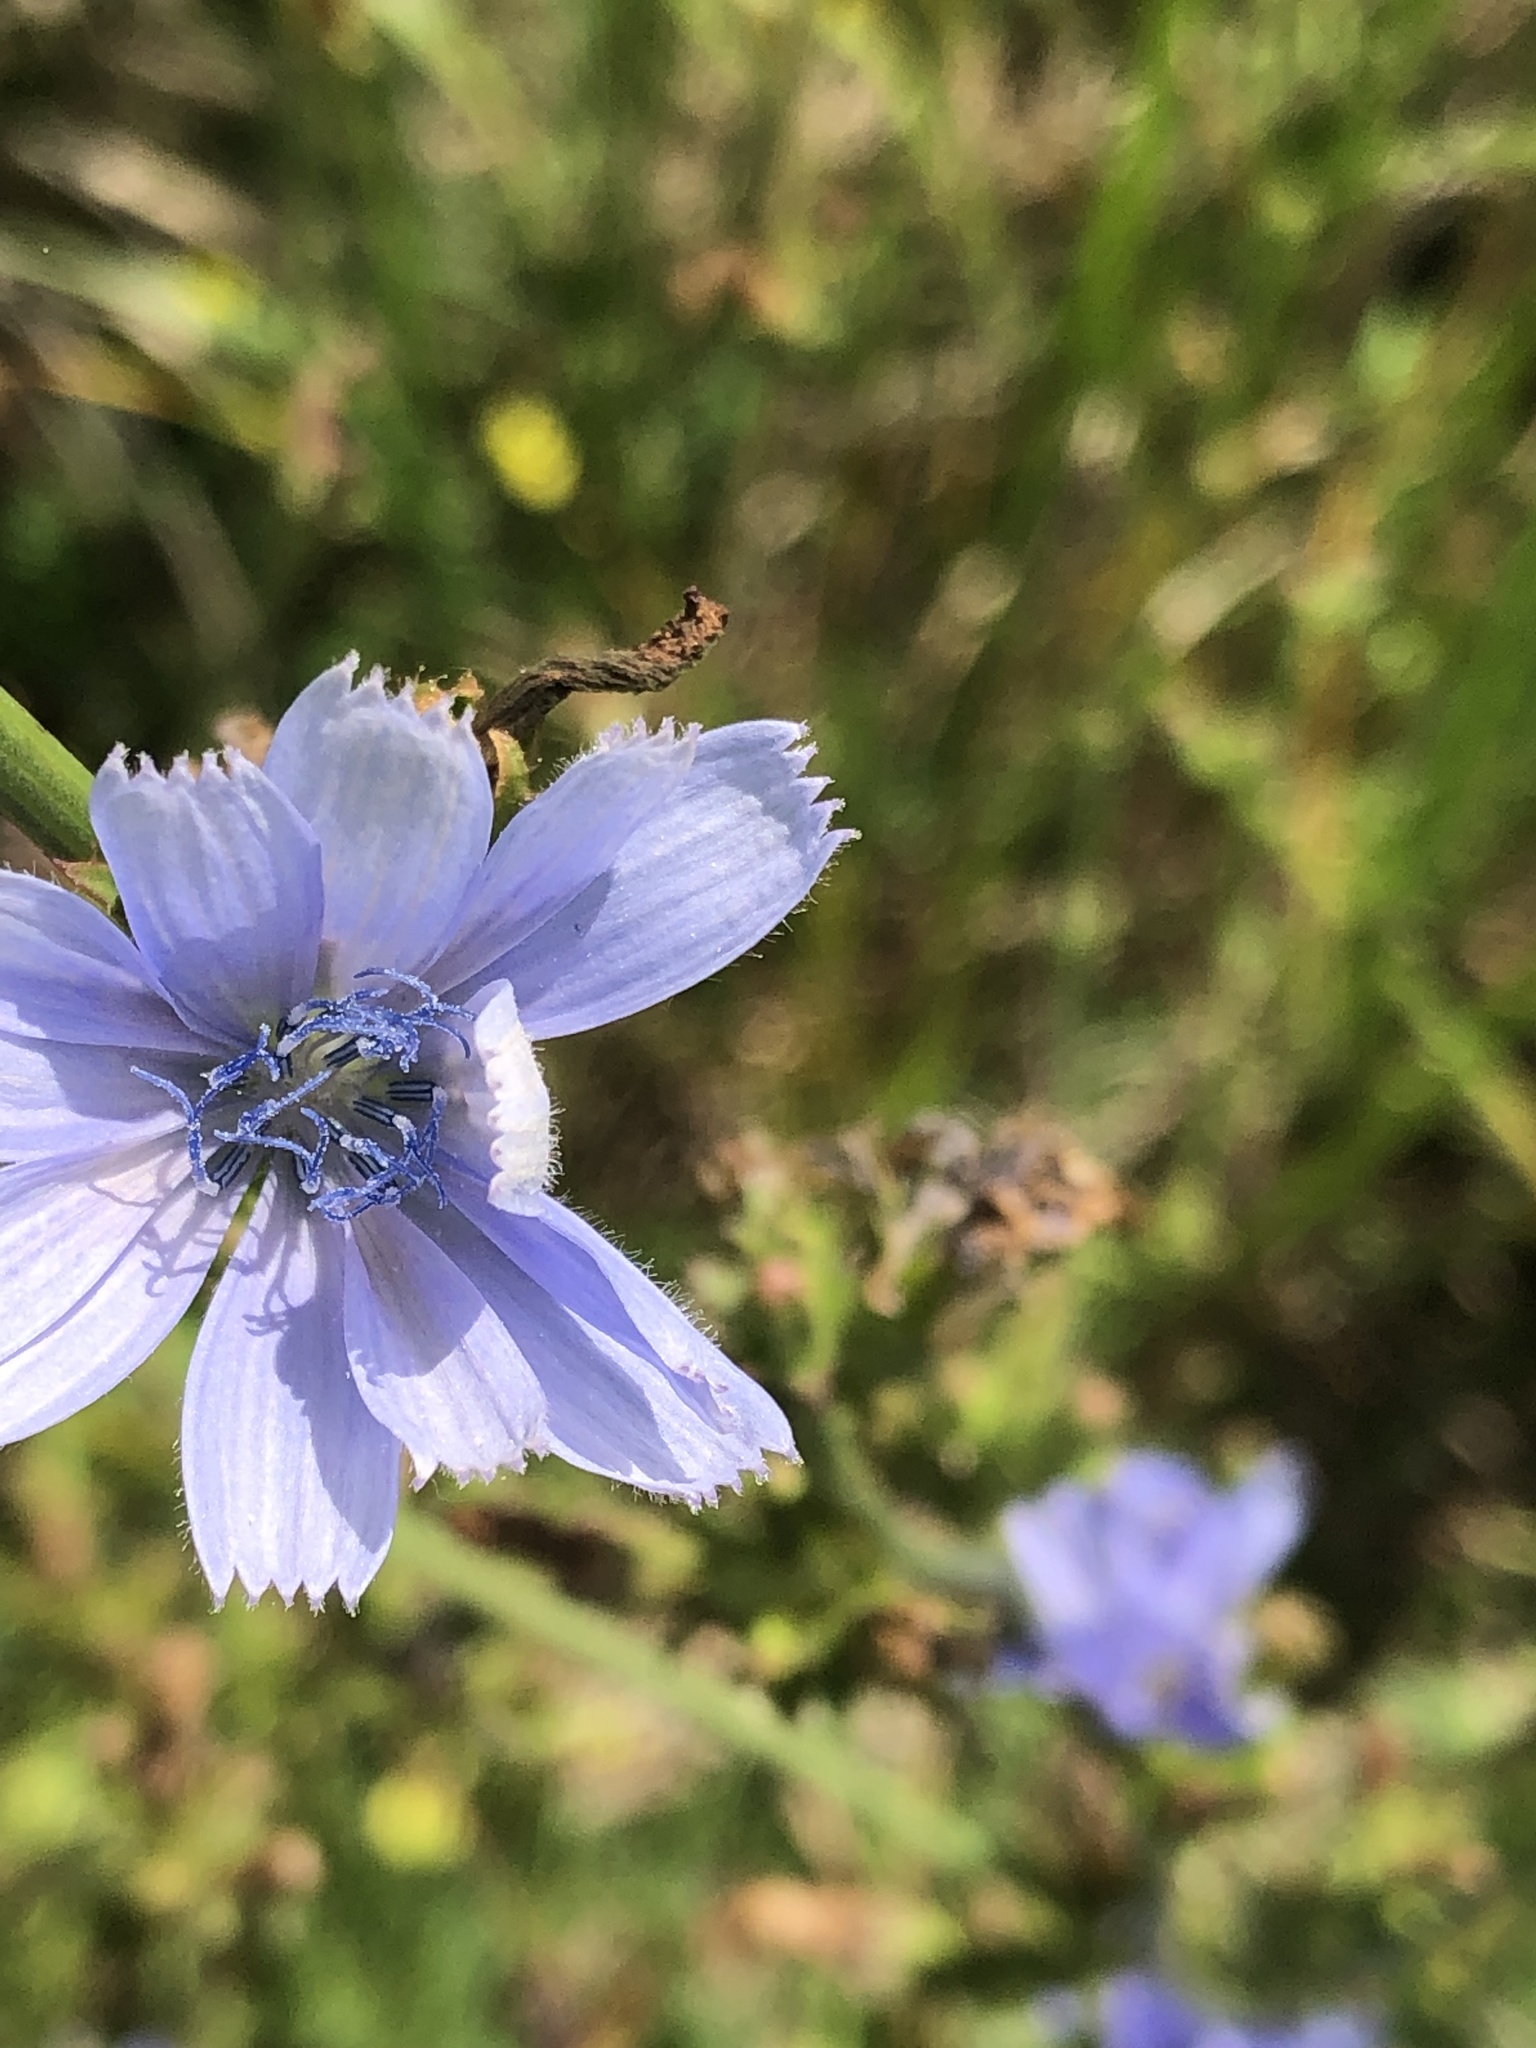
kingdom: Plantae
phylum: Tracheophyta
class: Magnoliopsida
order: Asterales
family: Asteraceae
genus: Cichorium
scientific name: Cichorium intybus
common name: Chicory
